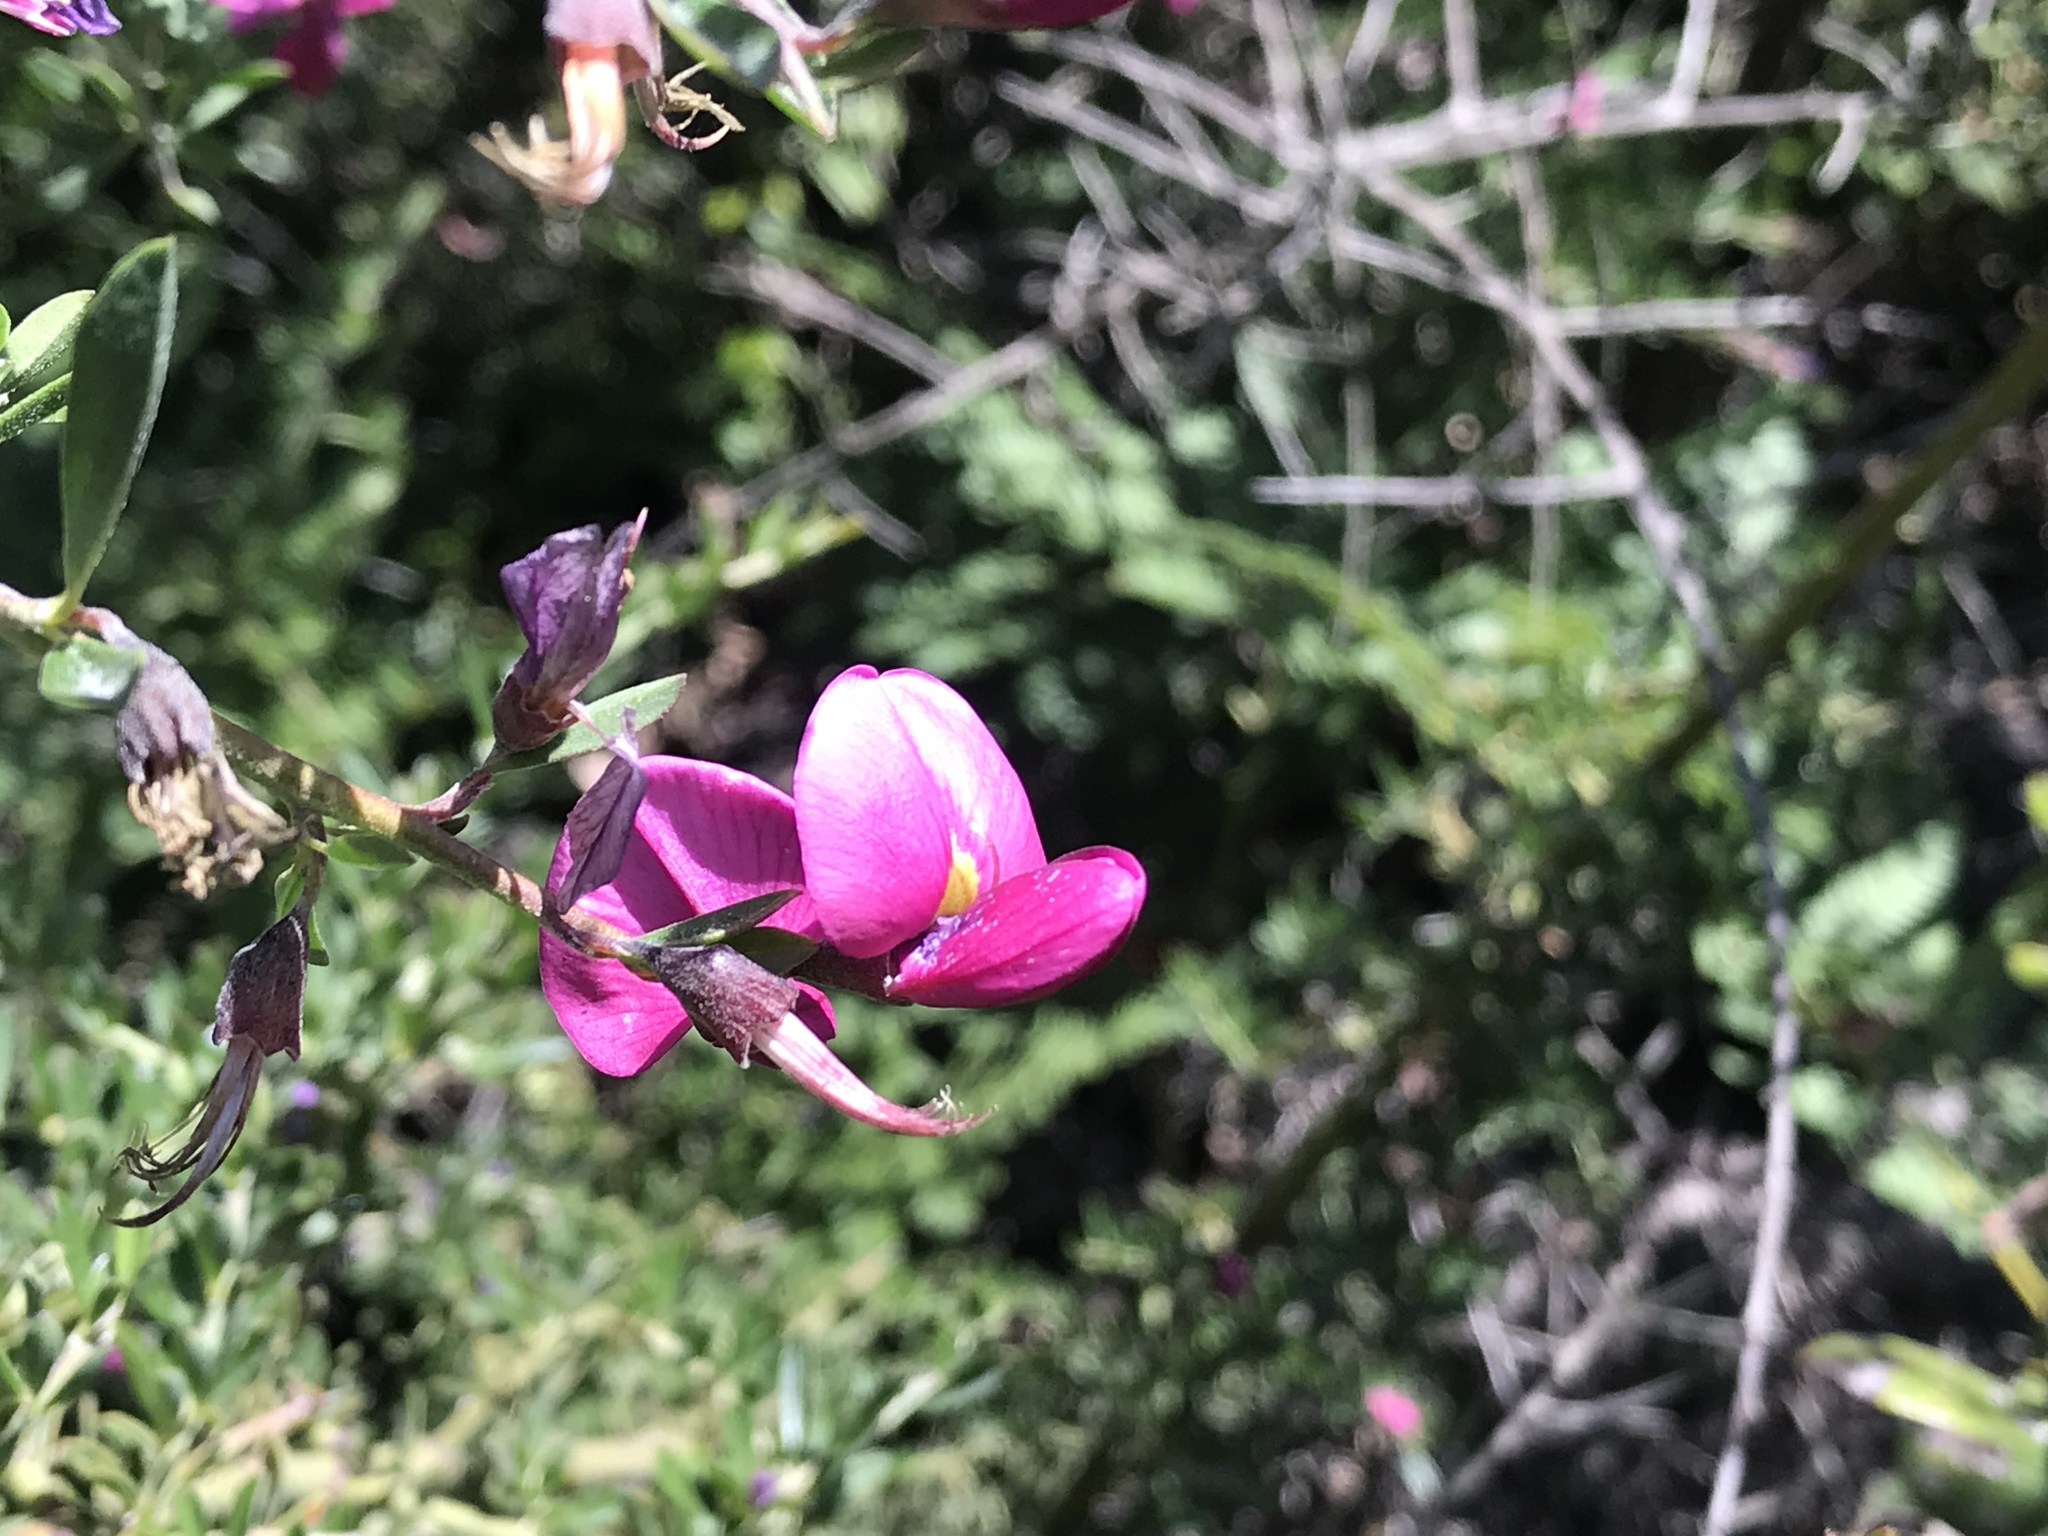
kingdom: Plantae
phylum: Tracheophyta
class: Magnoliopsida
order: Fabales
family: Fabaceae
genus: Pickeringia
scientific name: Pickeringia montana
